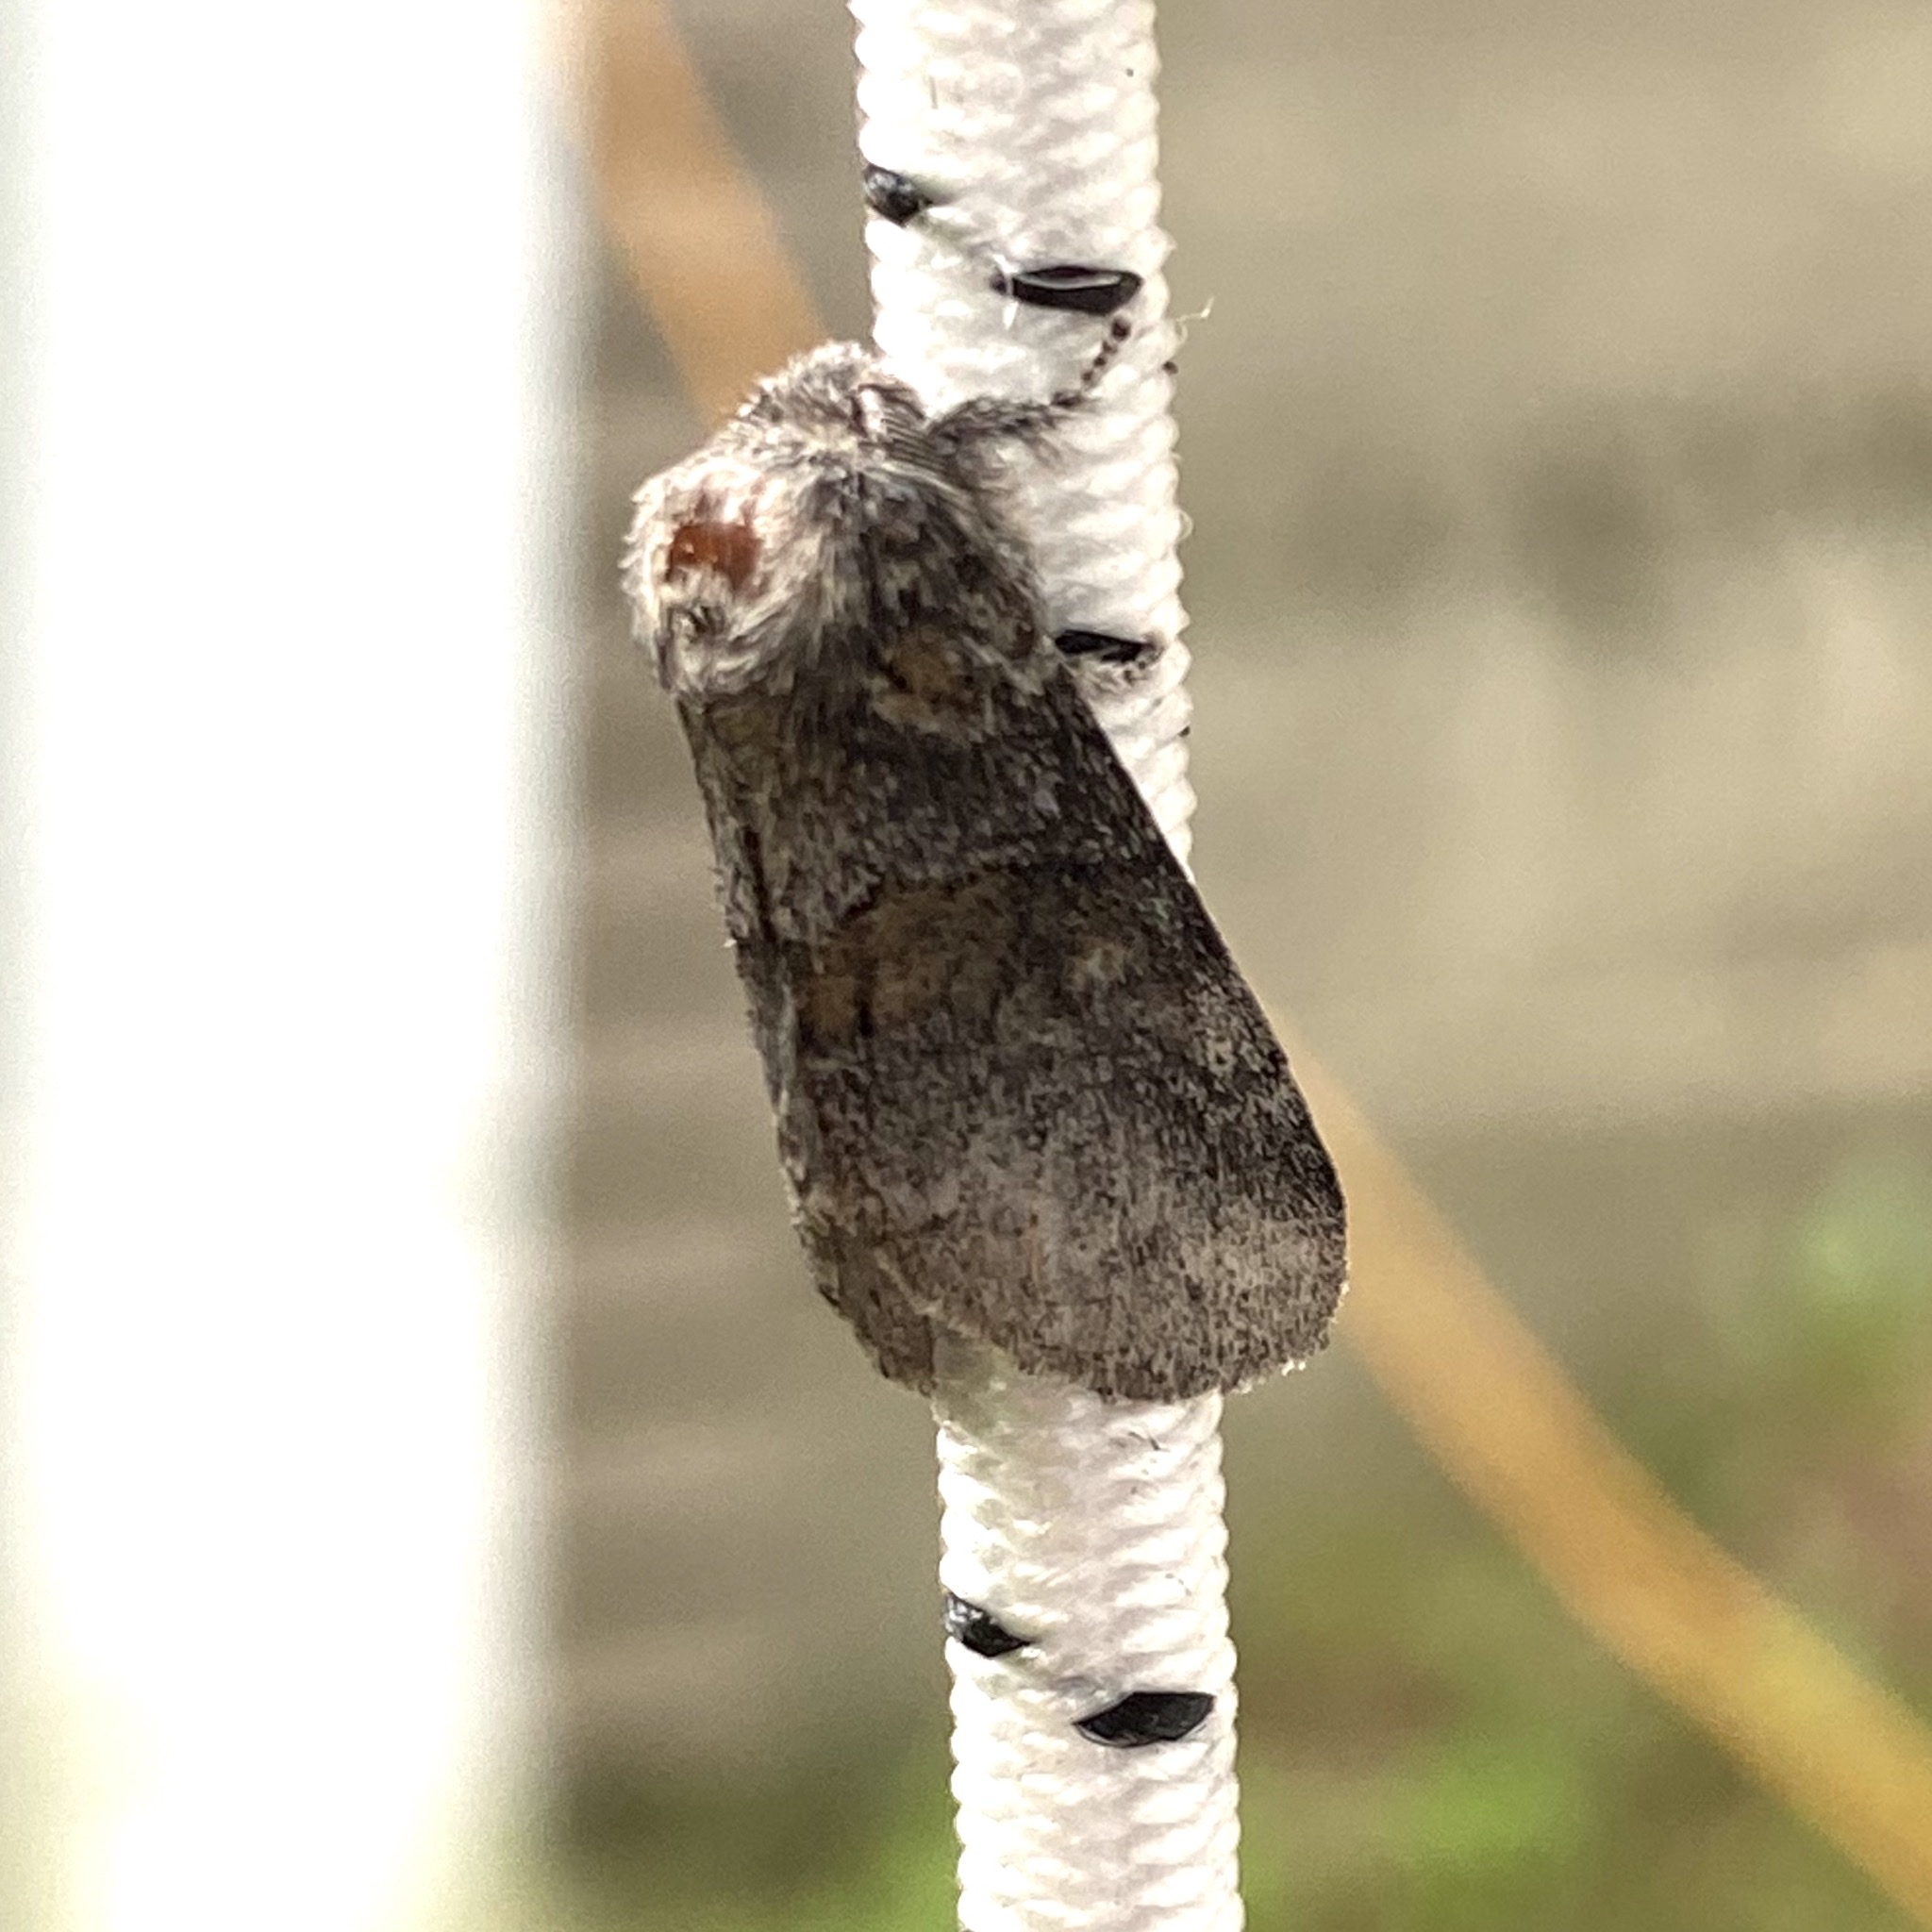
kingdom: Animalia
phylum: Arthropoda
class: Insecta
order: Lepidoptera
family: Notodontidae
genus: Gluphisia
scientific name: Gluphisia septentrionis
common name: Common gluphisia
